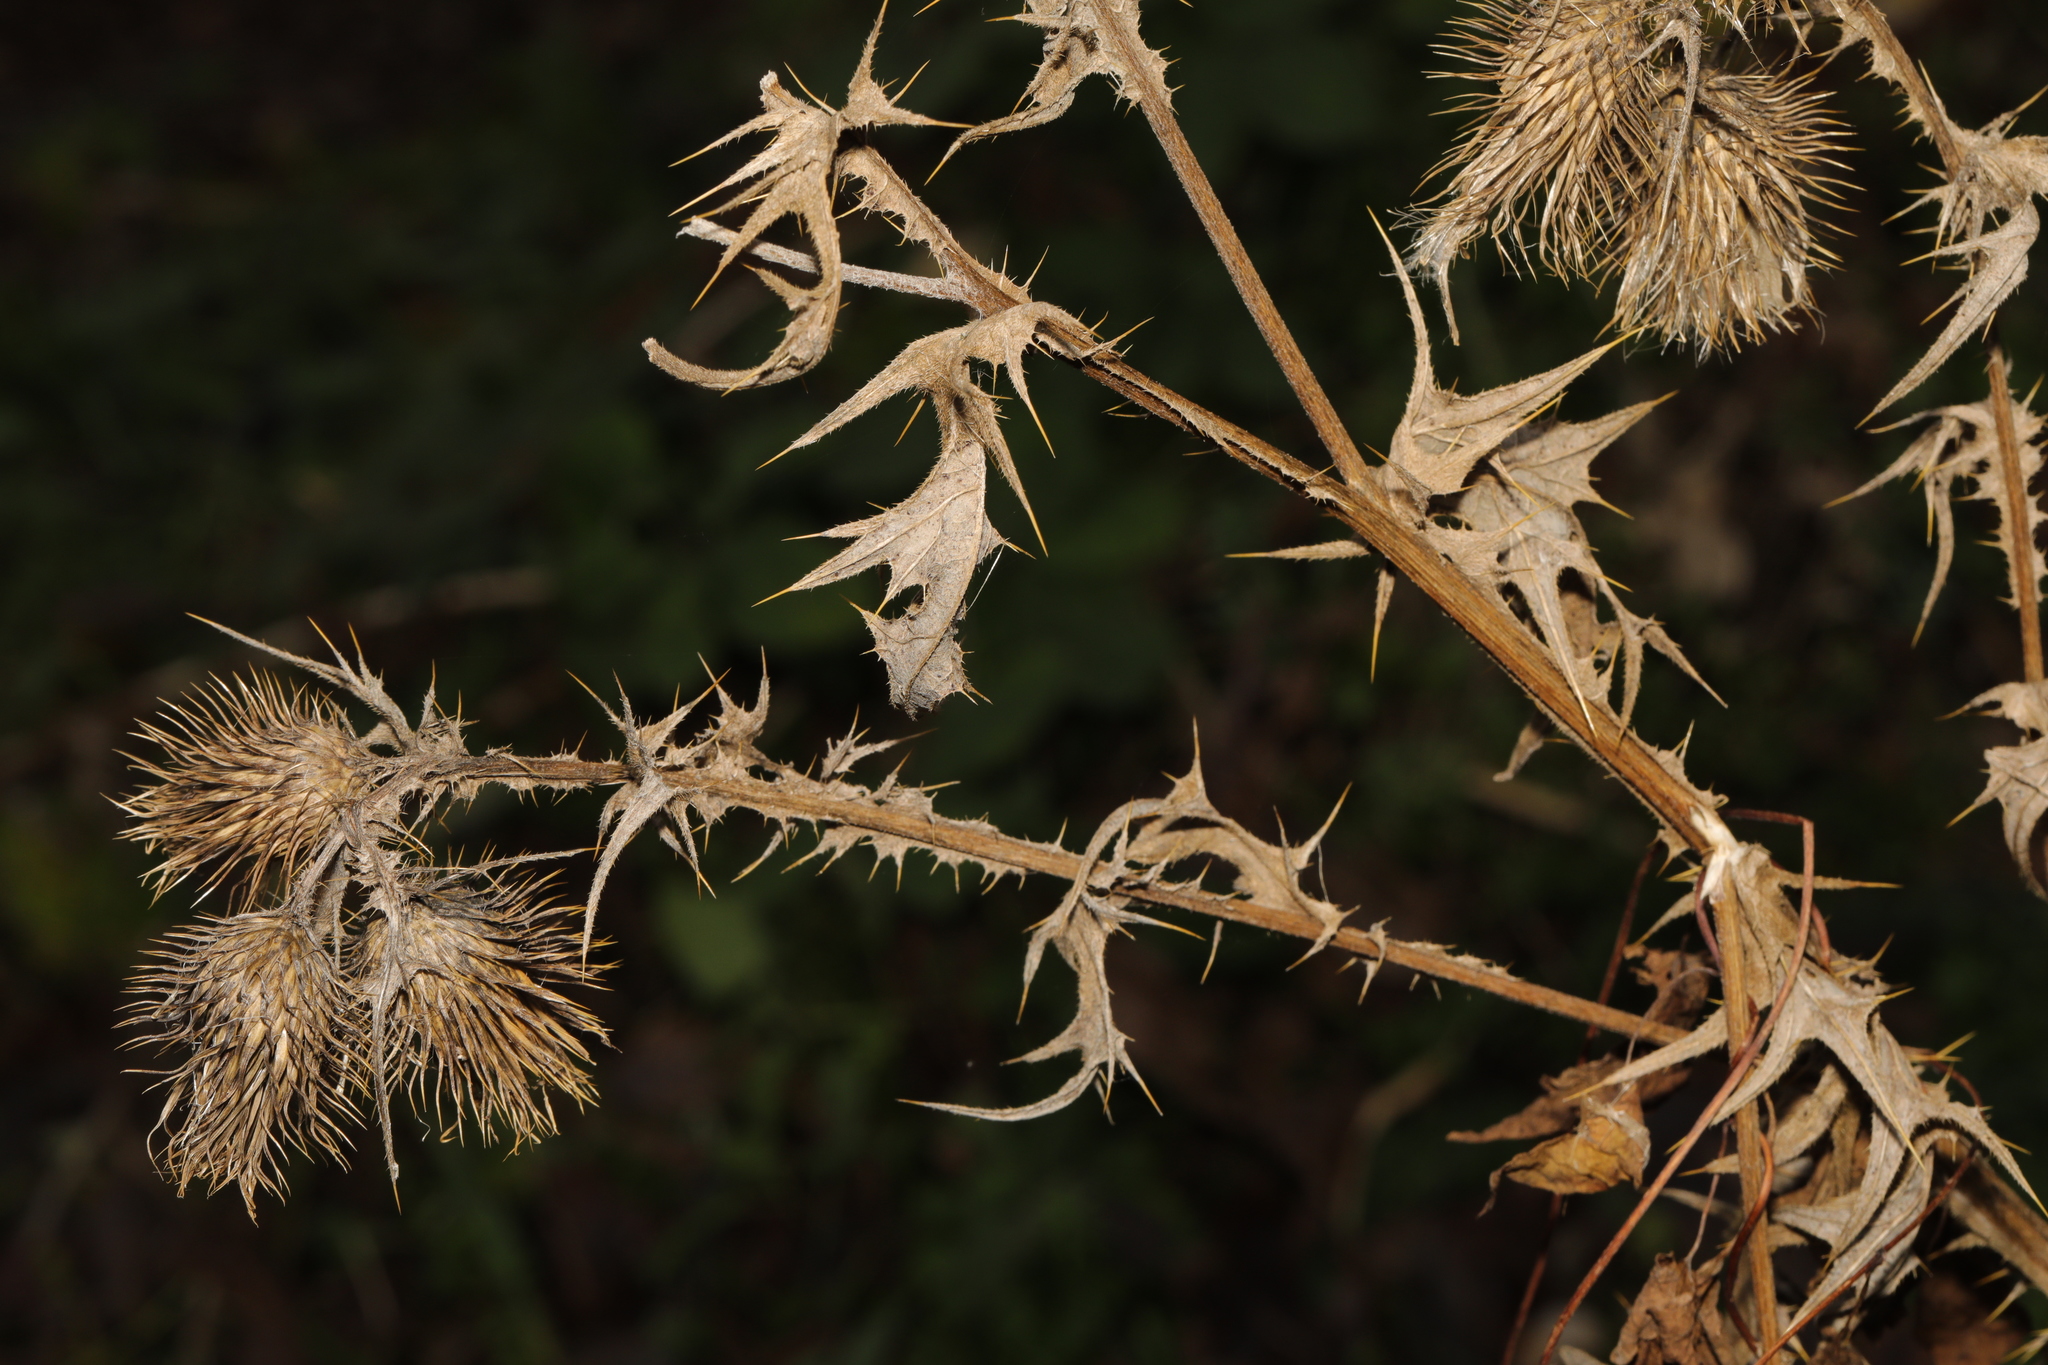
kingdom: Plantae
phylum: Tracheophyta
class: Magnoliopsida
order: Asterales
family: Asteraceae
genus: Cirsium
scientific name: Cirsium vulgare
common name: Bull thistle
